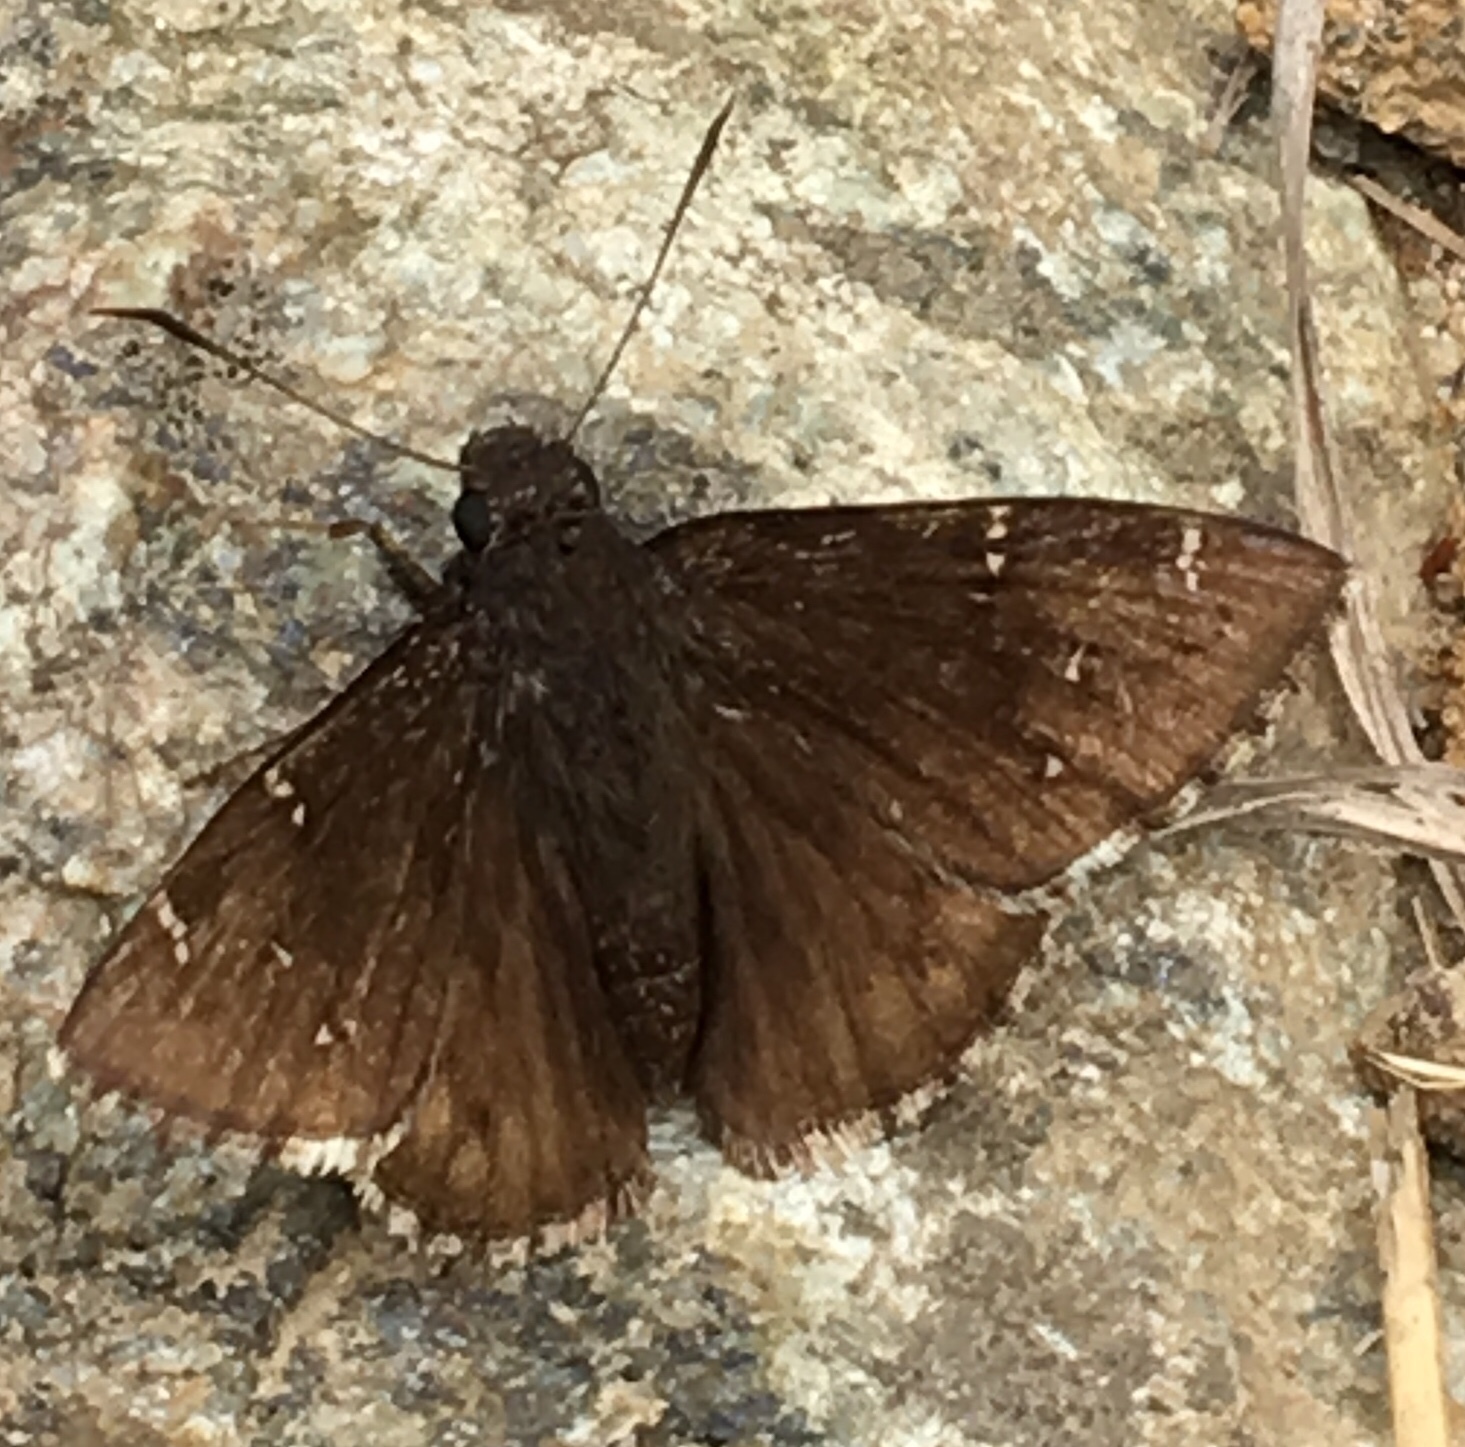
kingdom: Animalia
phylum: Arthropoda
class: Insecta
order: Lepidoptera
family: Hesperiidae
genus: Thorybes
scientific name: Thorybes pylades
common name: Northern cloudywing
